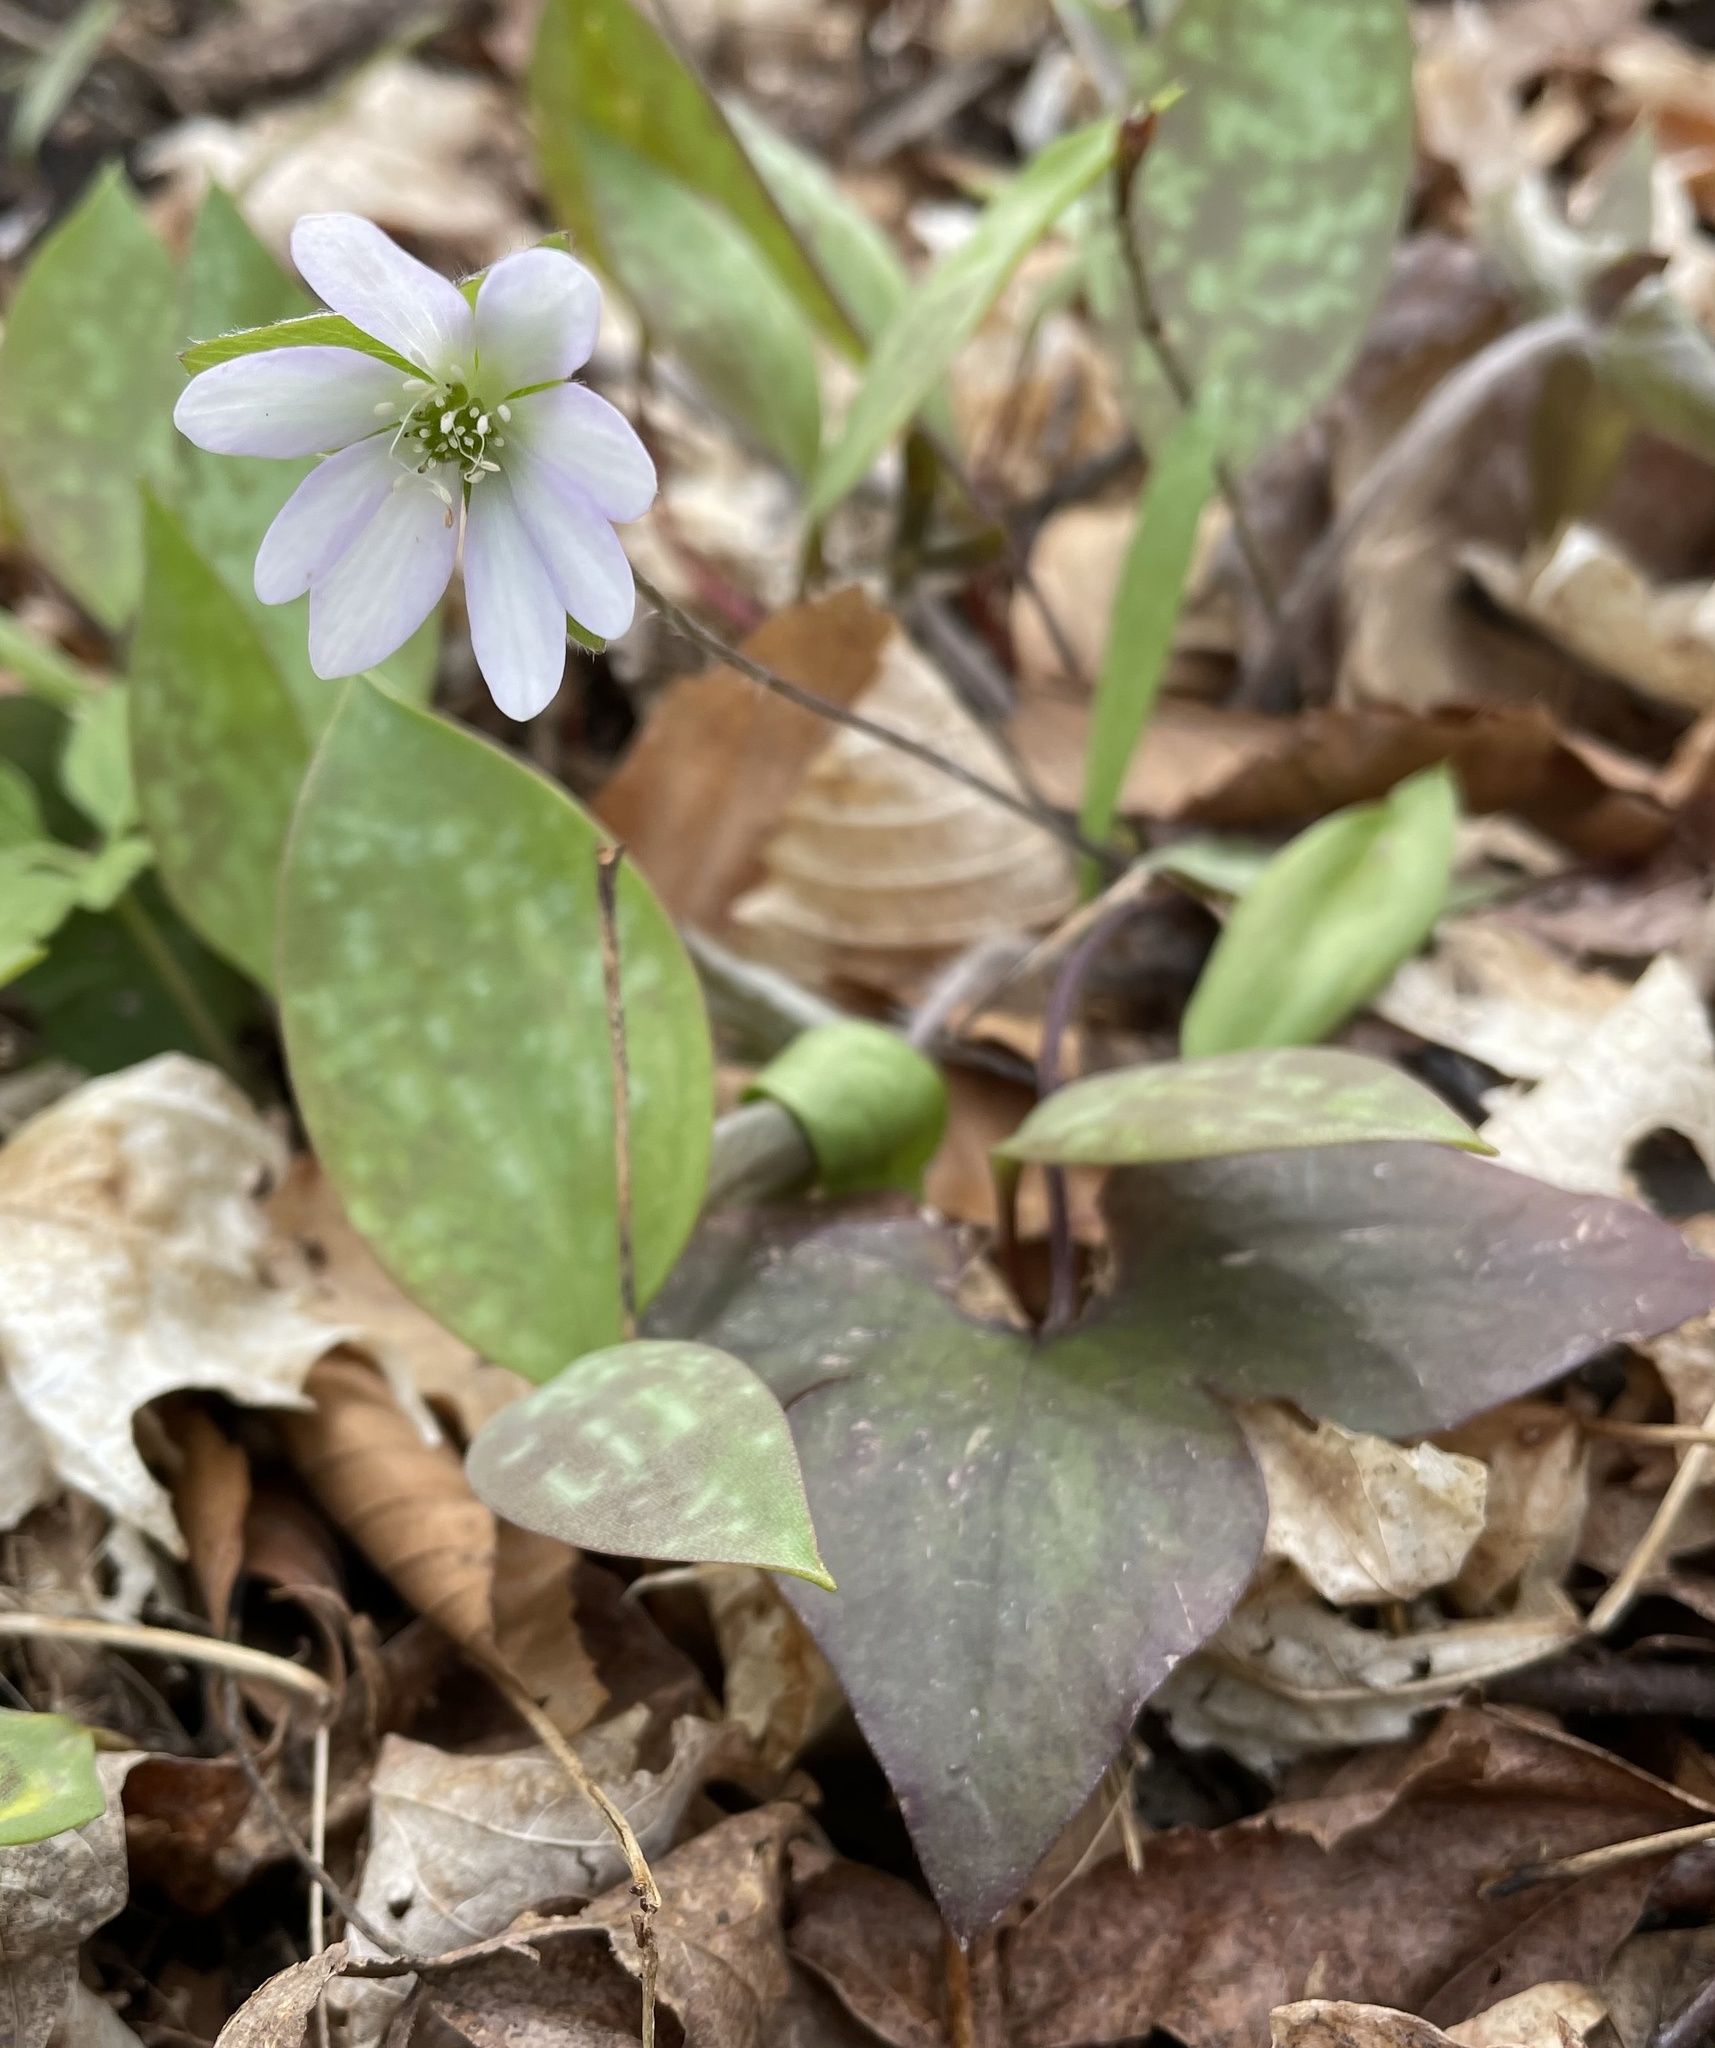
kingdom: Plantae
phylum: Tracheophyta
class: Magnoliopsida
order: Ranunculales
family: Ranunculaceae
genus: Hepatica
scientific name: Hepatica acutiloba
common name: Sharp-lobed hepatica
